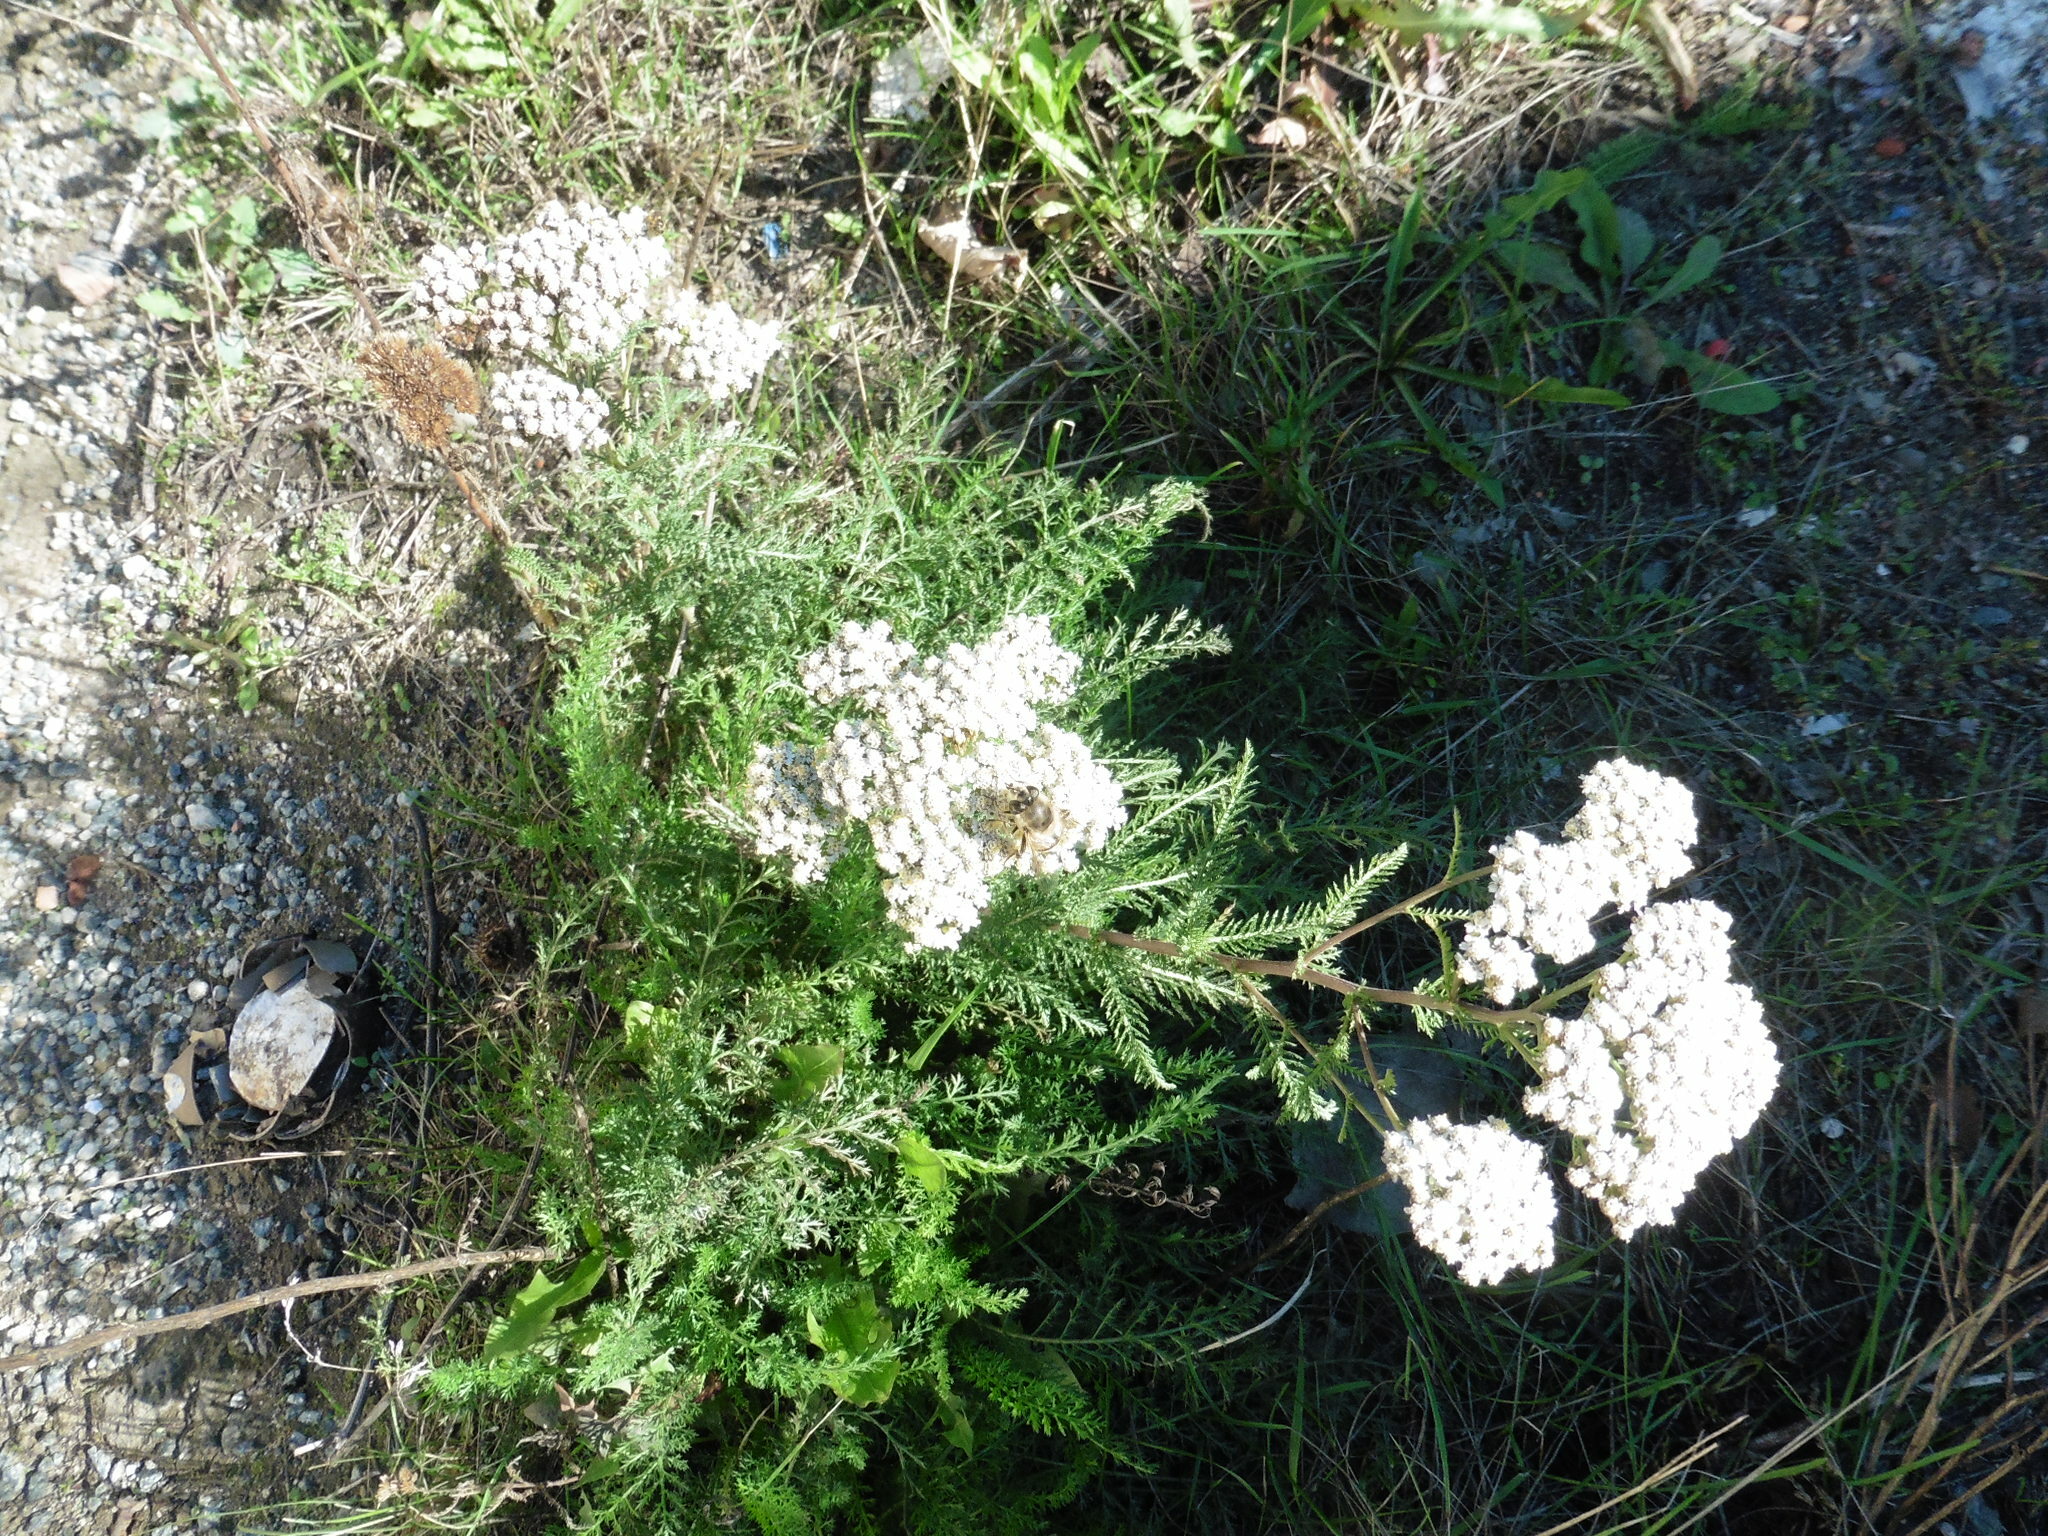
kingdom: Plantae
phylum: Tracheophyta
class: Magnoliopsida
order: Asterales
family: Asteraceae
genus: Achillea
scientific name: Achillea millefolium
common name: Yarrow
